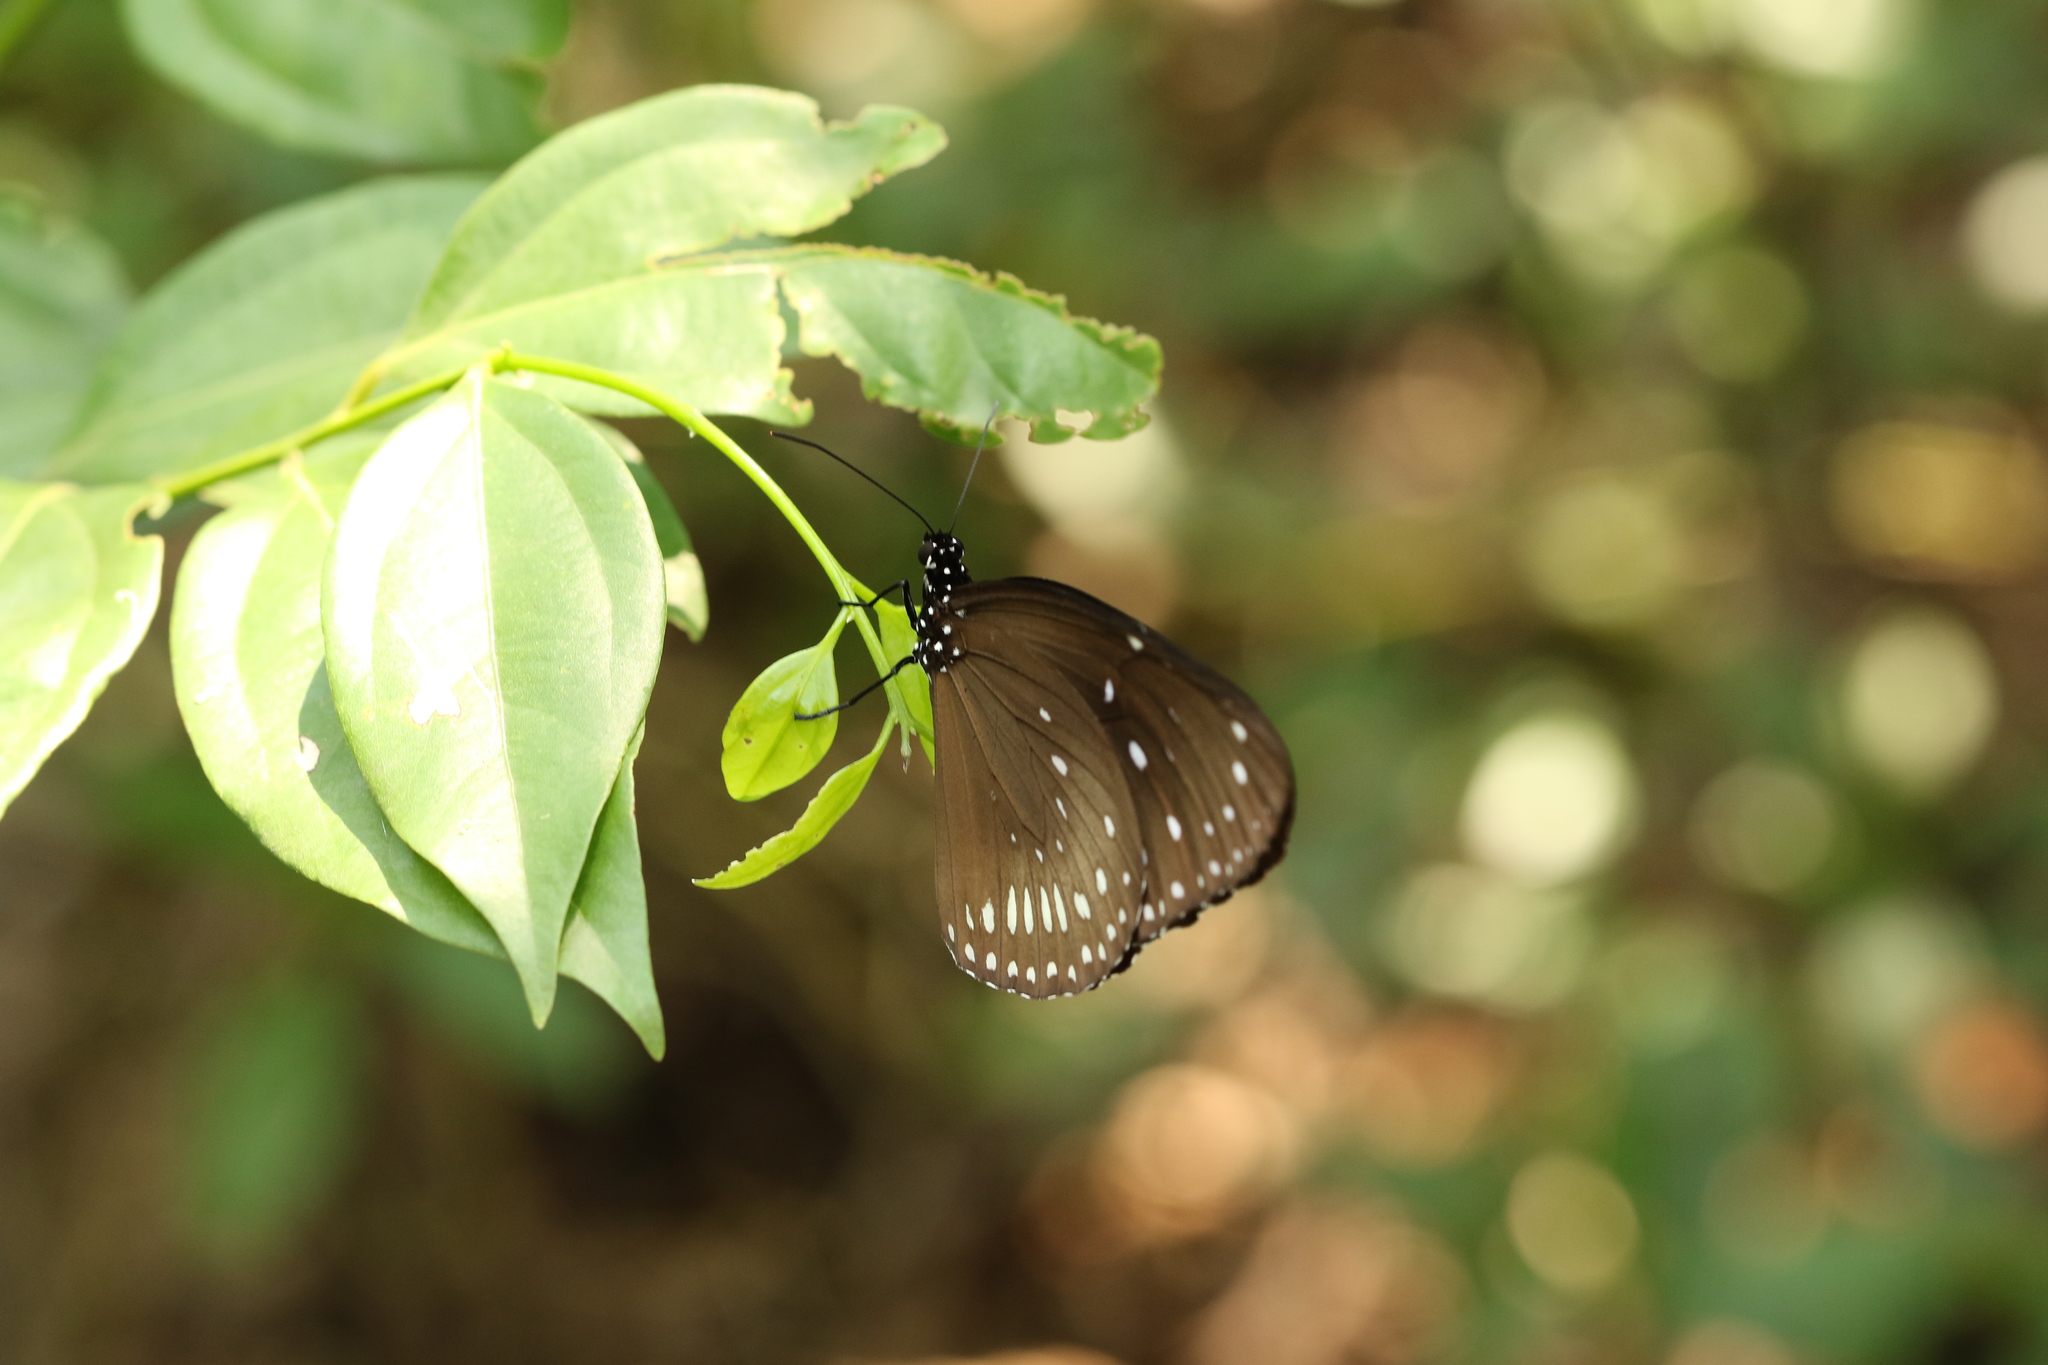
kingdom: Animalia
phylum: Arthropoda
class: Insecta
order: Lepidoptera
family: Nymphalidae
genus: Euploea
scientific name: Euploea midamus
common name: Blue-spotted crow butterfly
